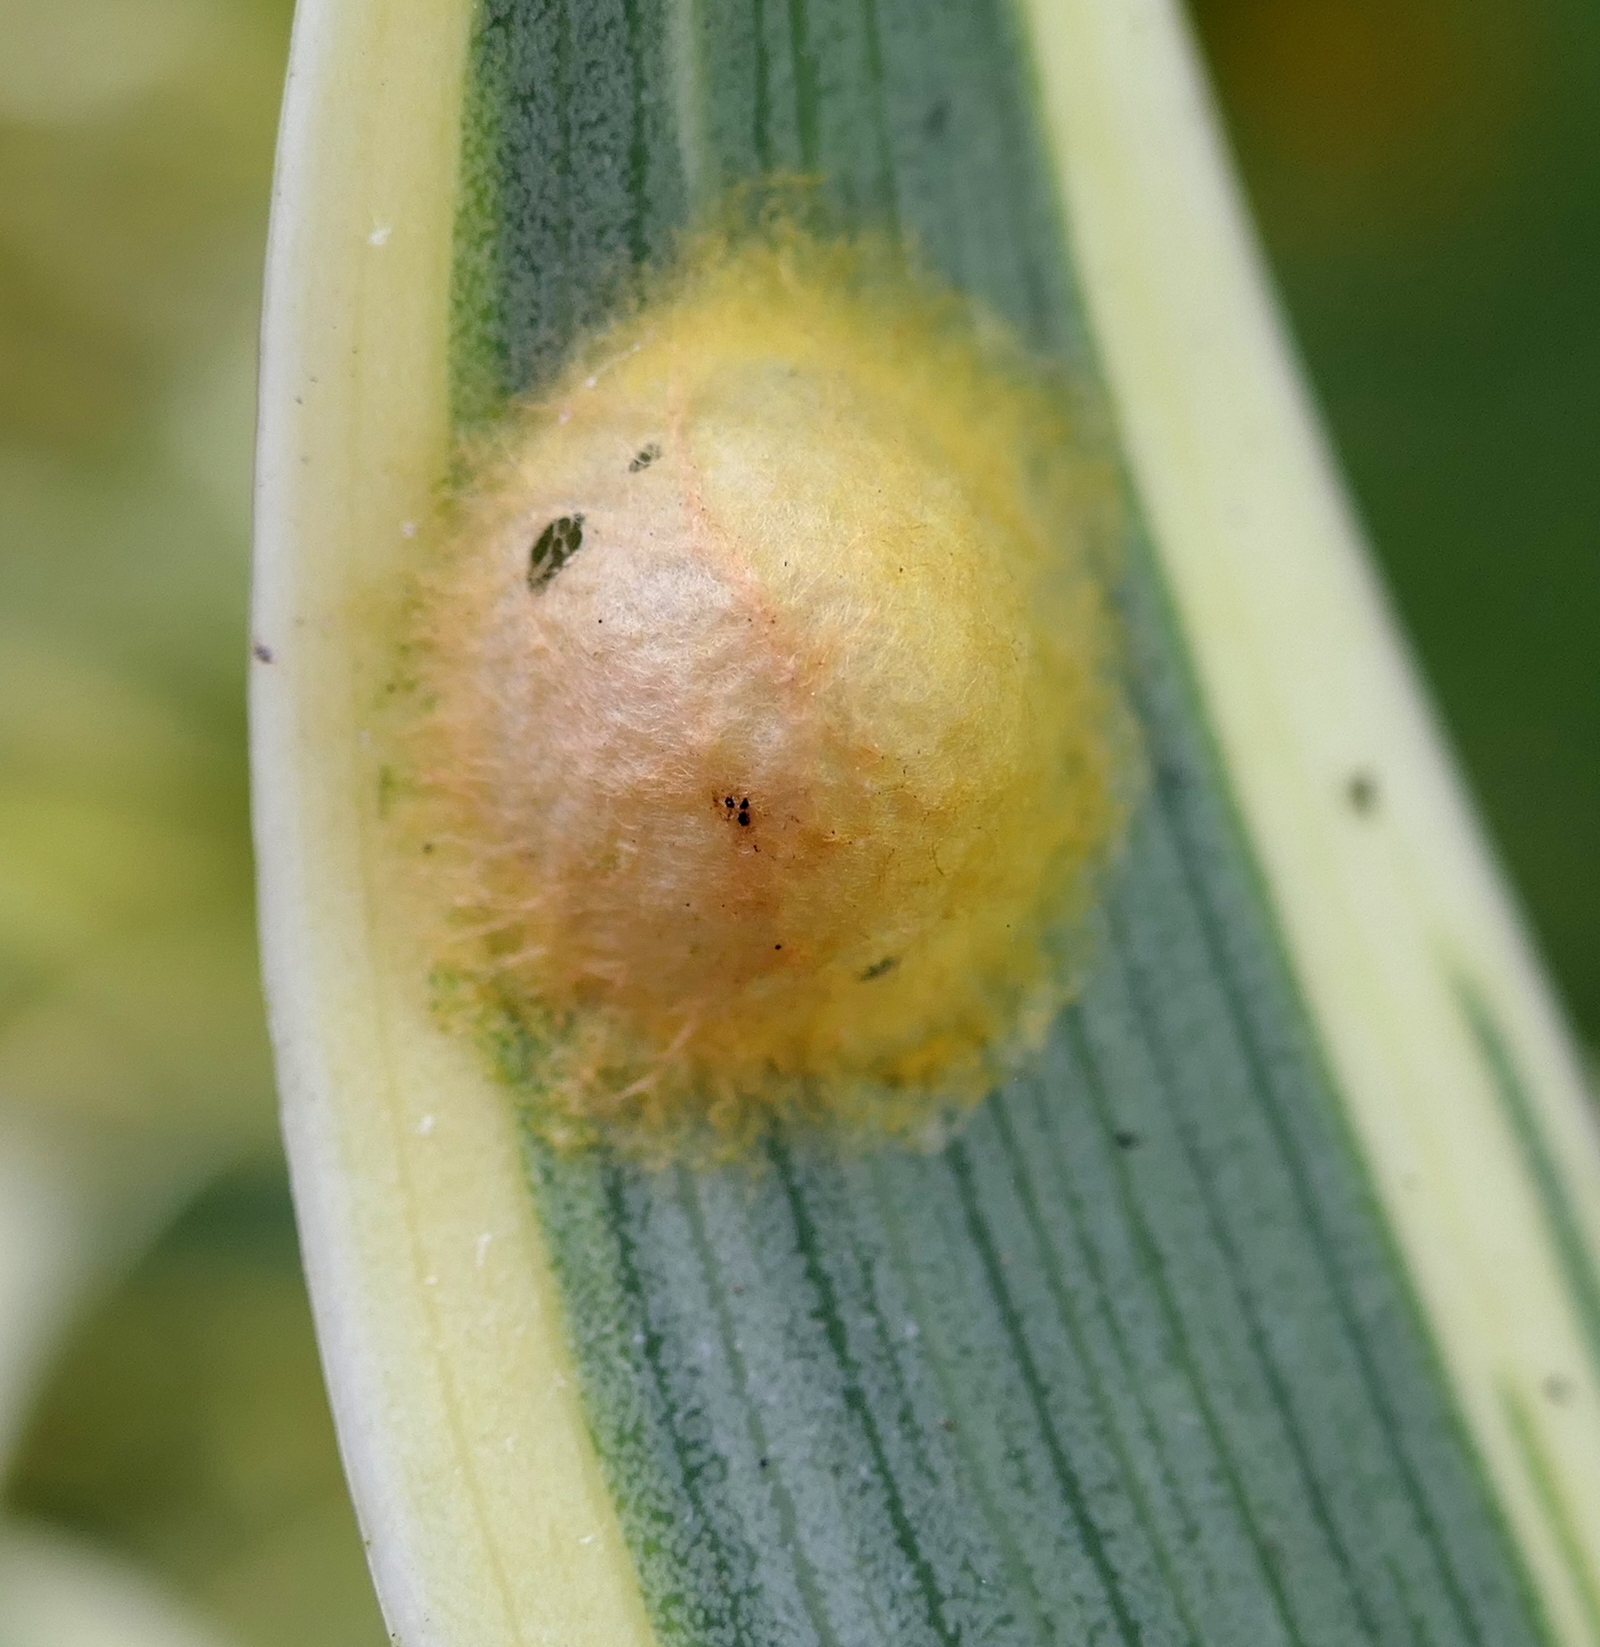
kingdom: Animalia
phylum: Arthropoda
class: Arachnida
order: Araneae
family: Araneidae
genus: Alpaida
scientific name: Alpaida bicornuta
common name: Orb weavers
